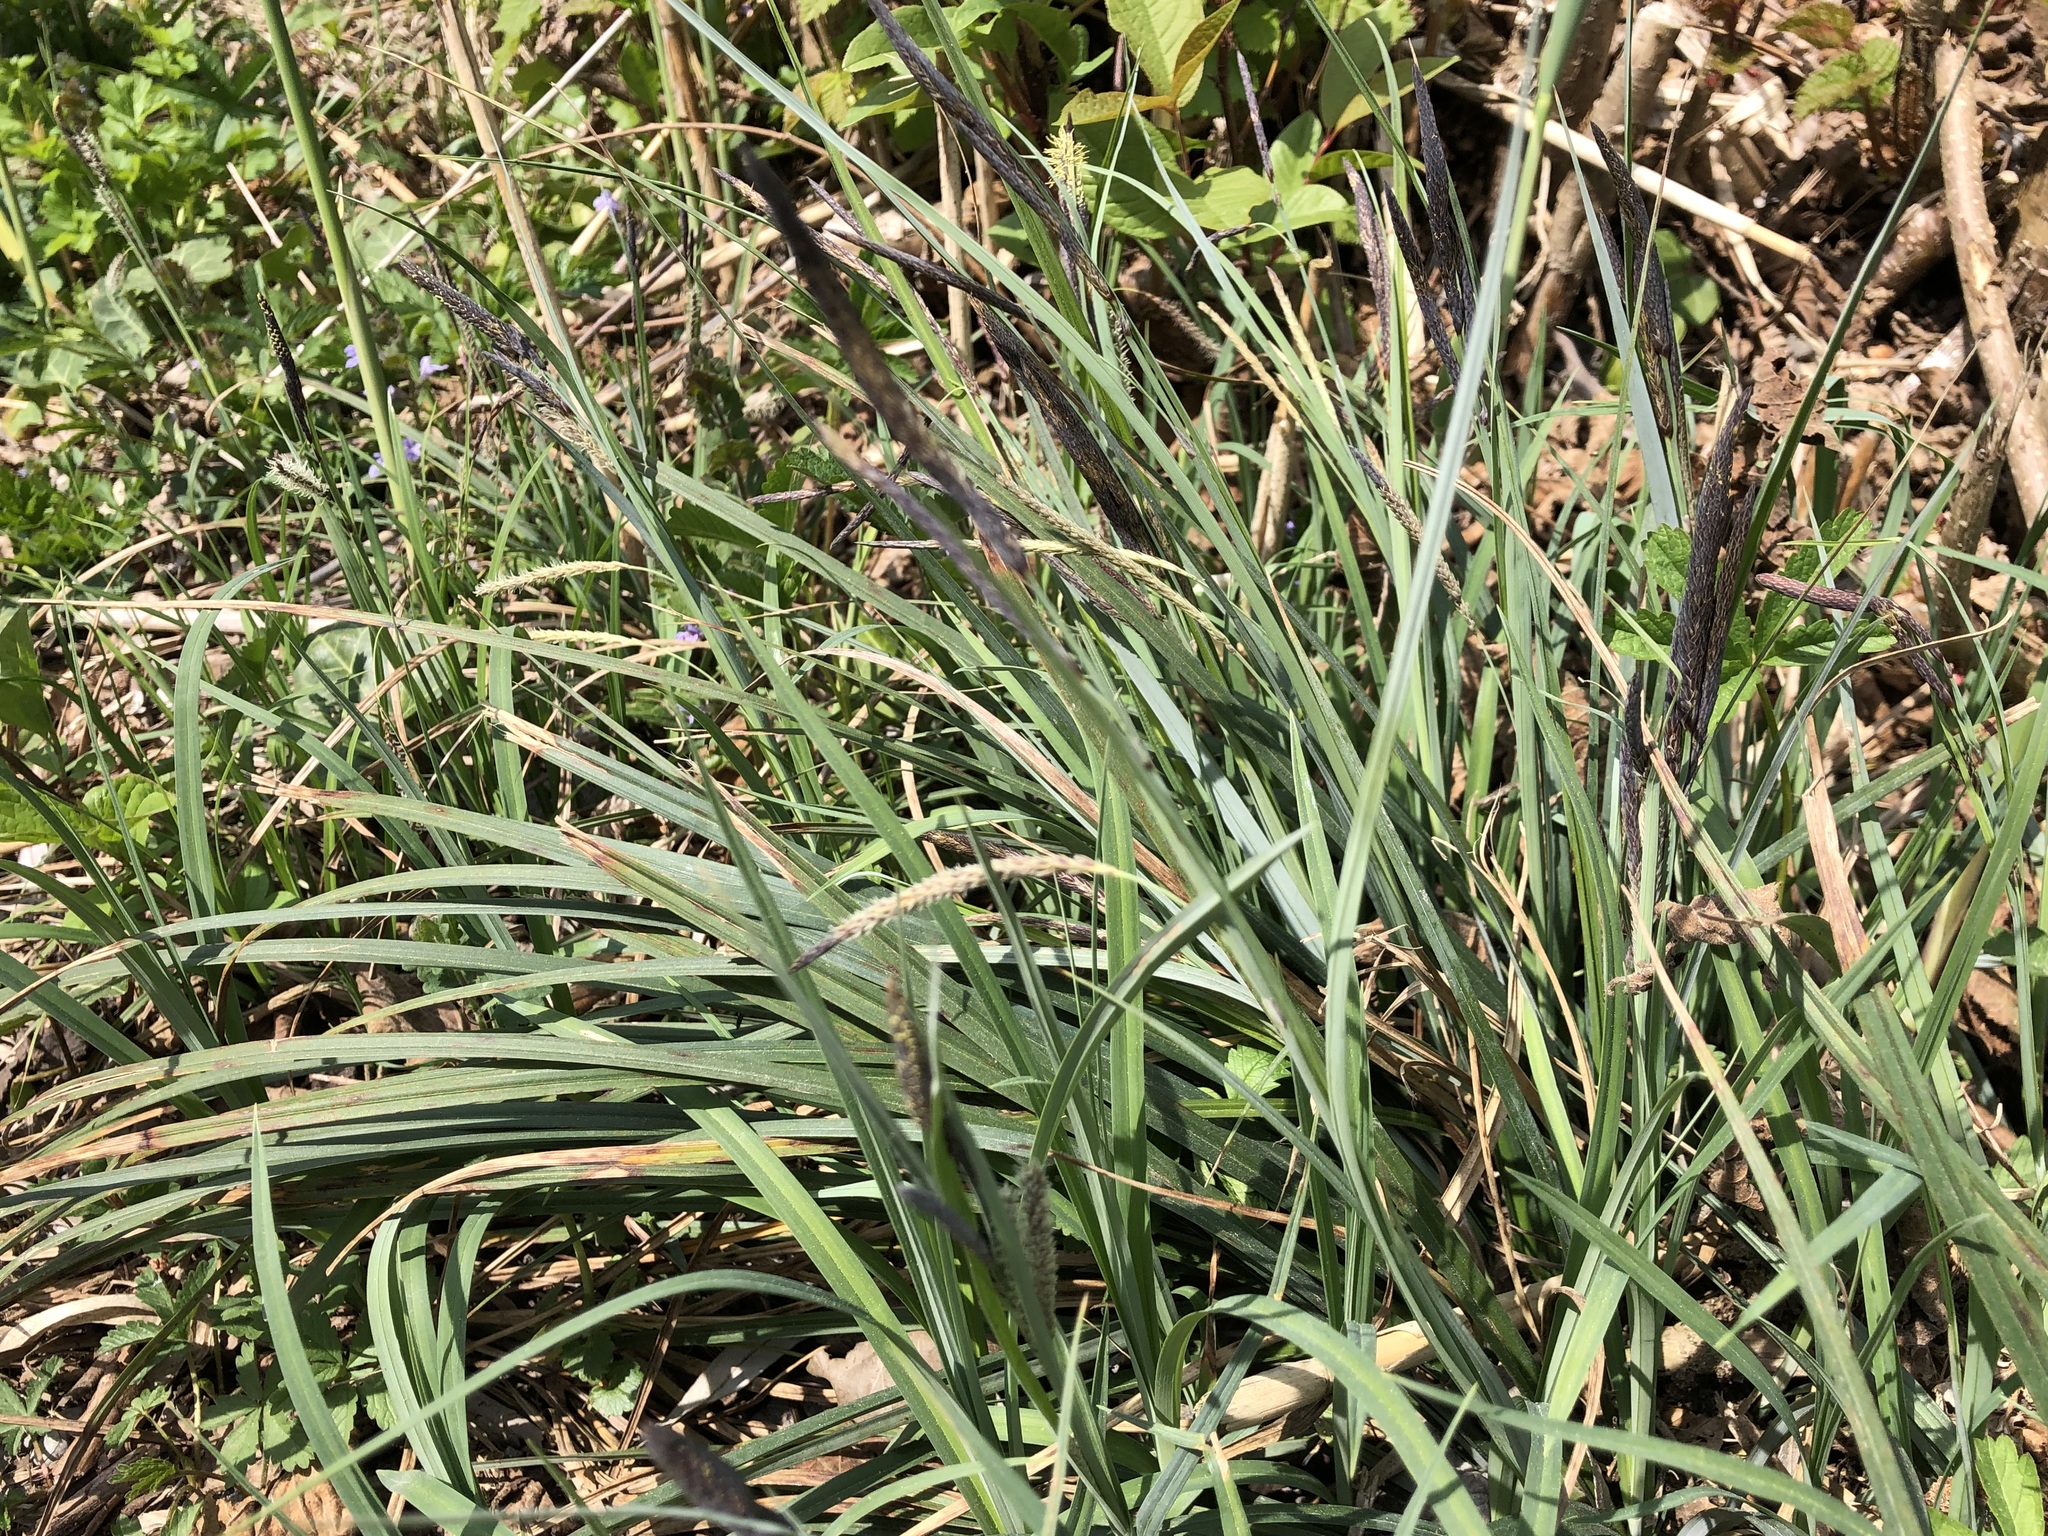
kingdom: Plantae
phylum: Tracheophyta
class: Liliopsida
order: Poales
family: Cyperaceae
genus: Carex
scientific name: Carex flacca
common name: Glaucous sedge
